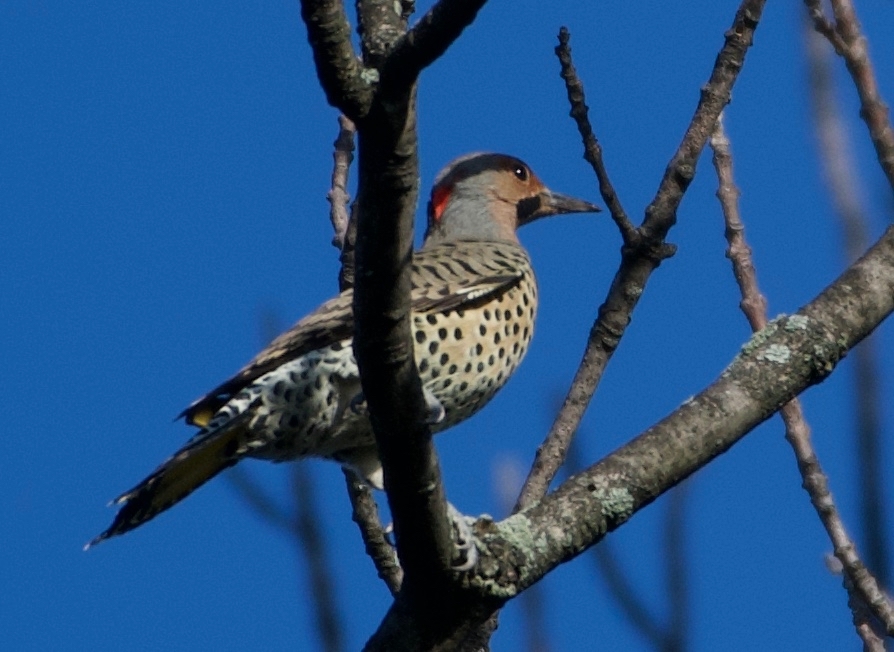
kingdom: Animalia
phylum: Chordata
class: Aves
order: Piciformes
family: Picidae
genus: Colaptes
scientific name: Colaptes auratus
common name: Northern flicker
